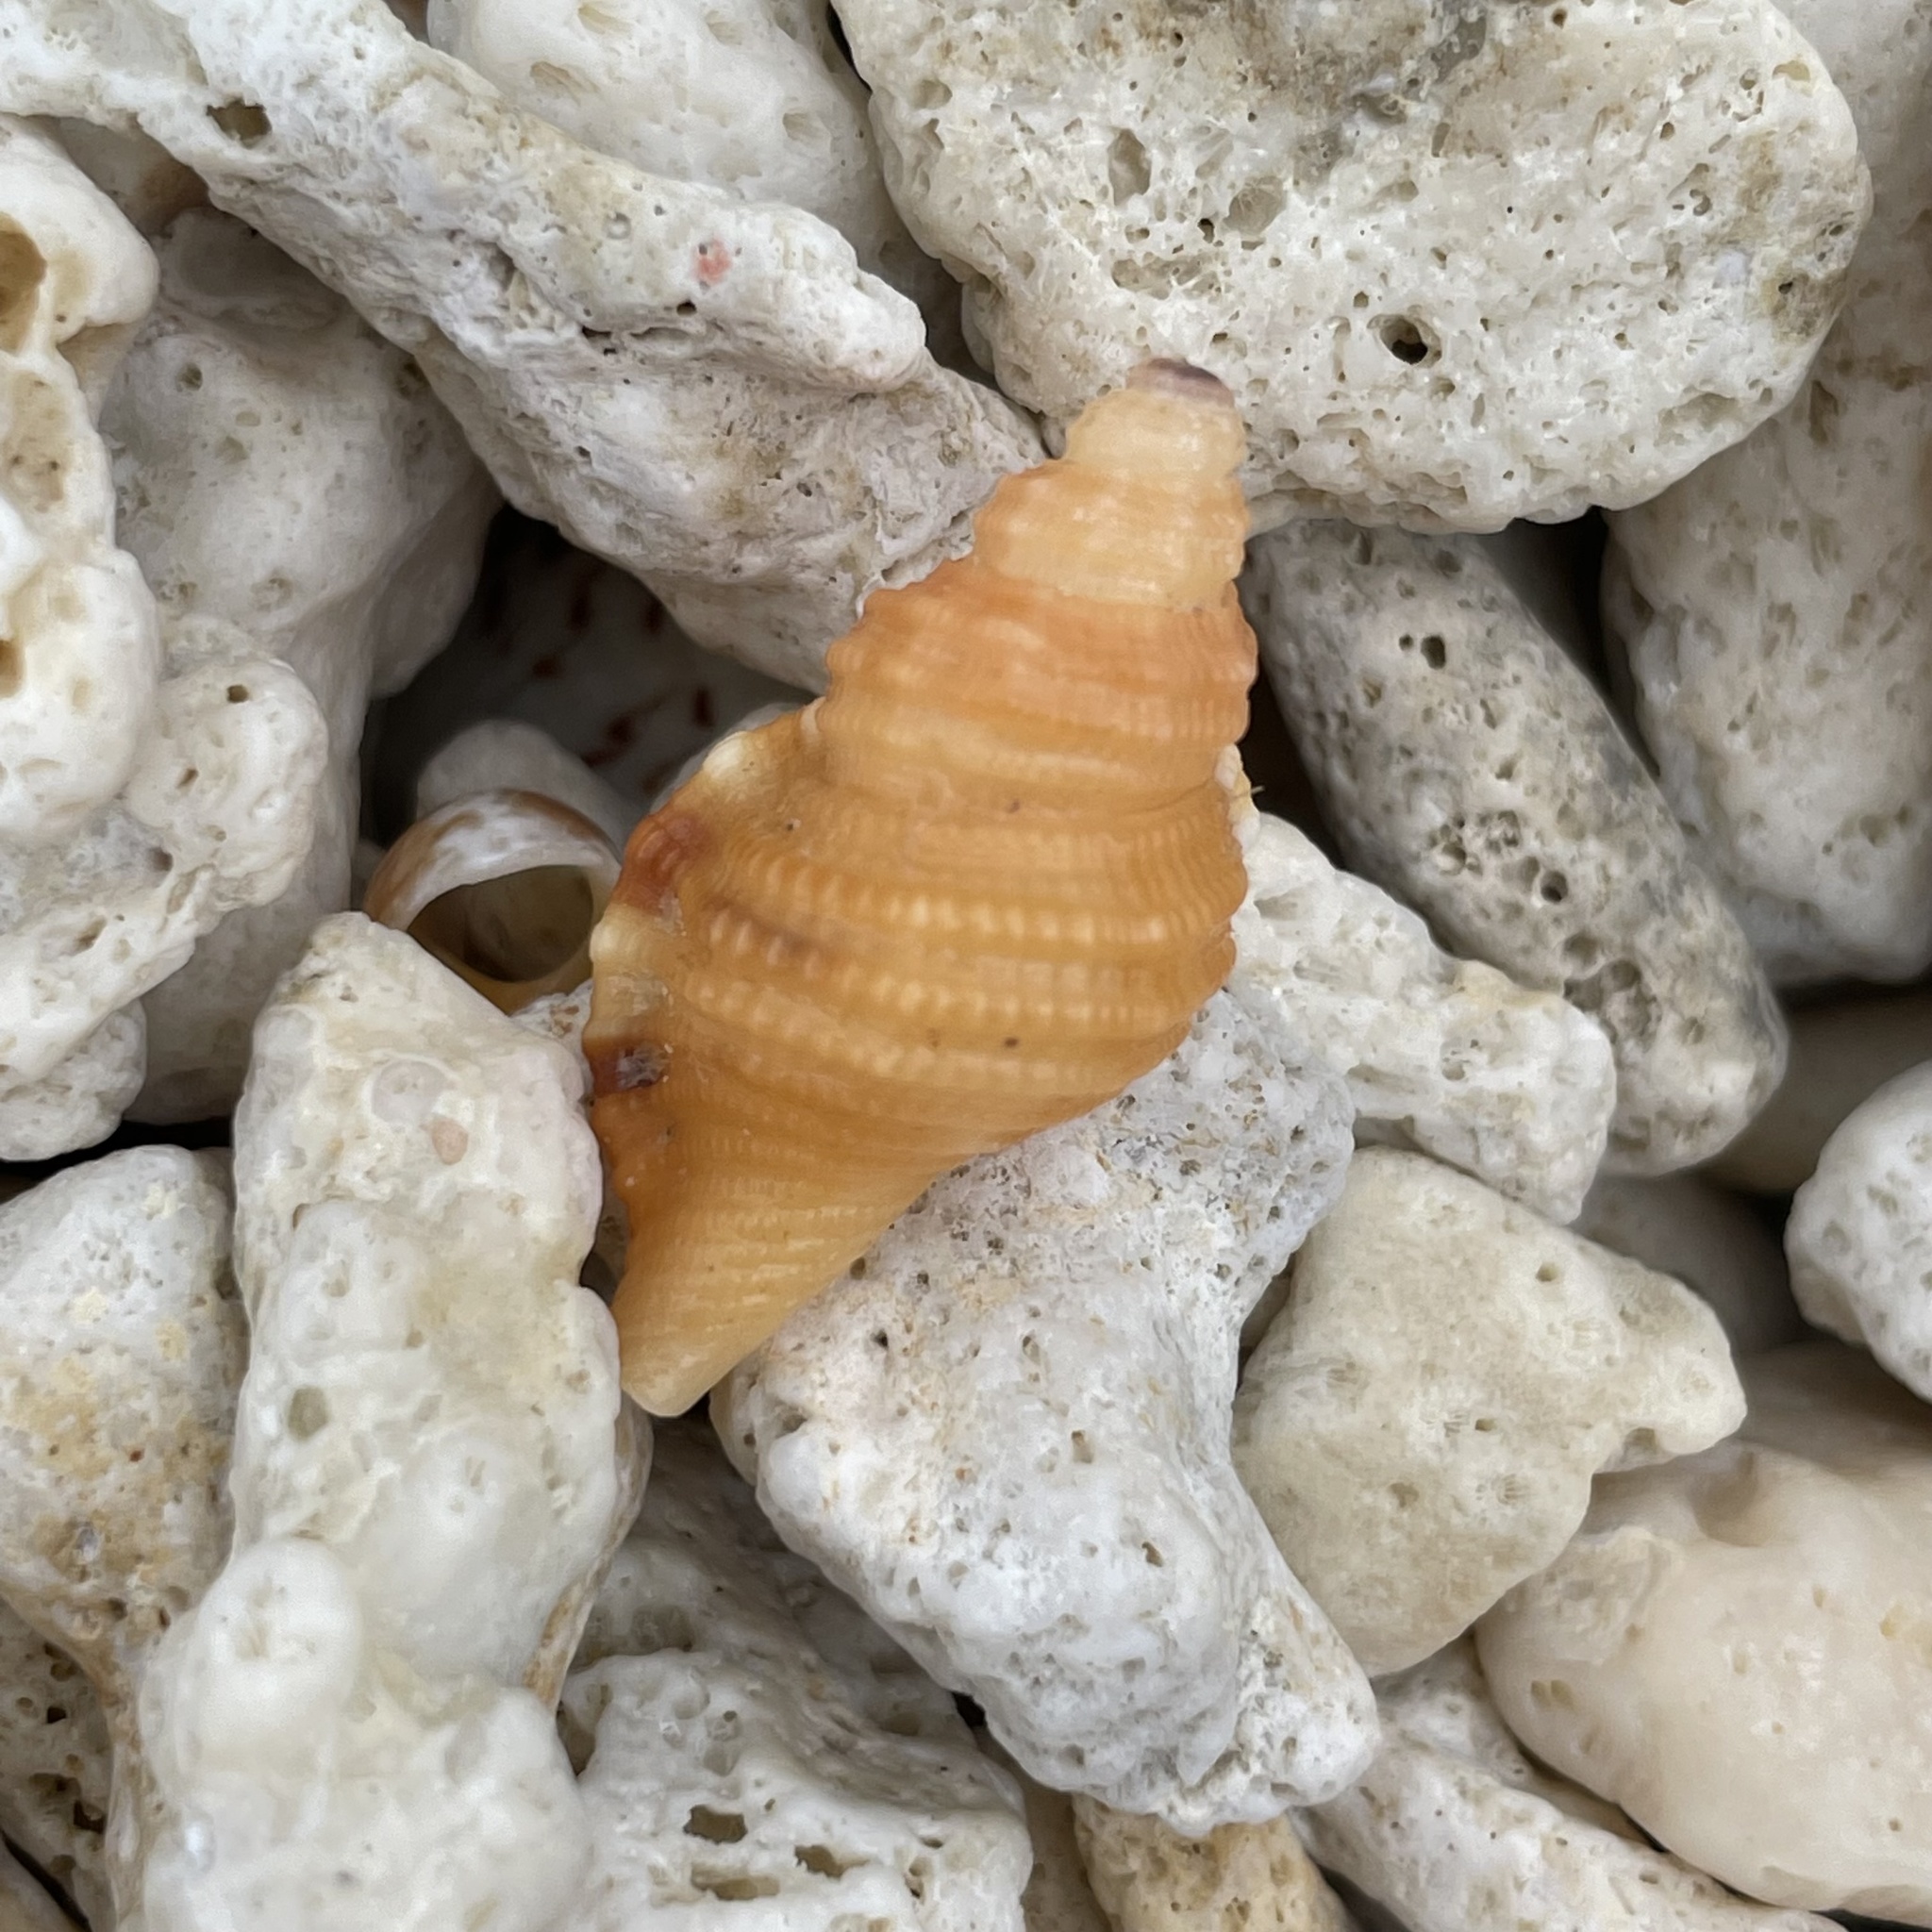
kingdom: Animalia
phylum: Mollusca
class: Gastropoda
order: Littorinimorpha
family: Cymatiidae
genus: Monoplex
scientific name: Monoplex gemmatus
